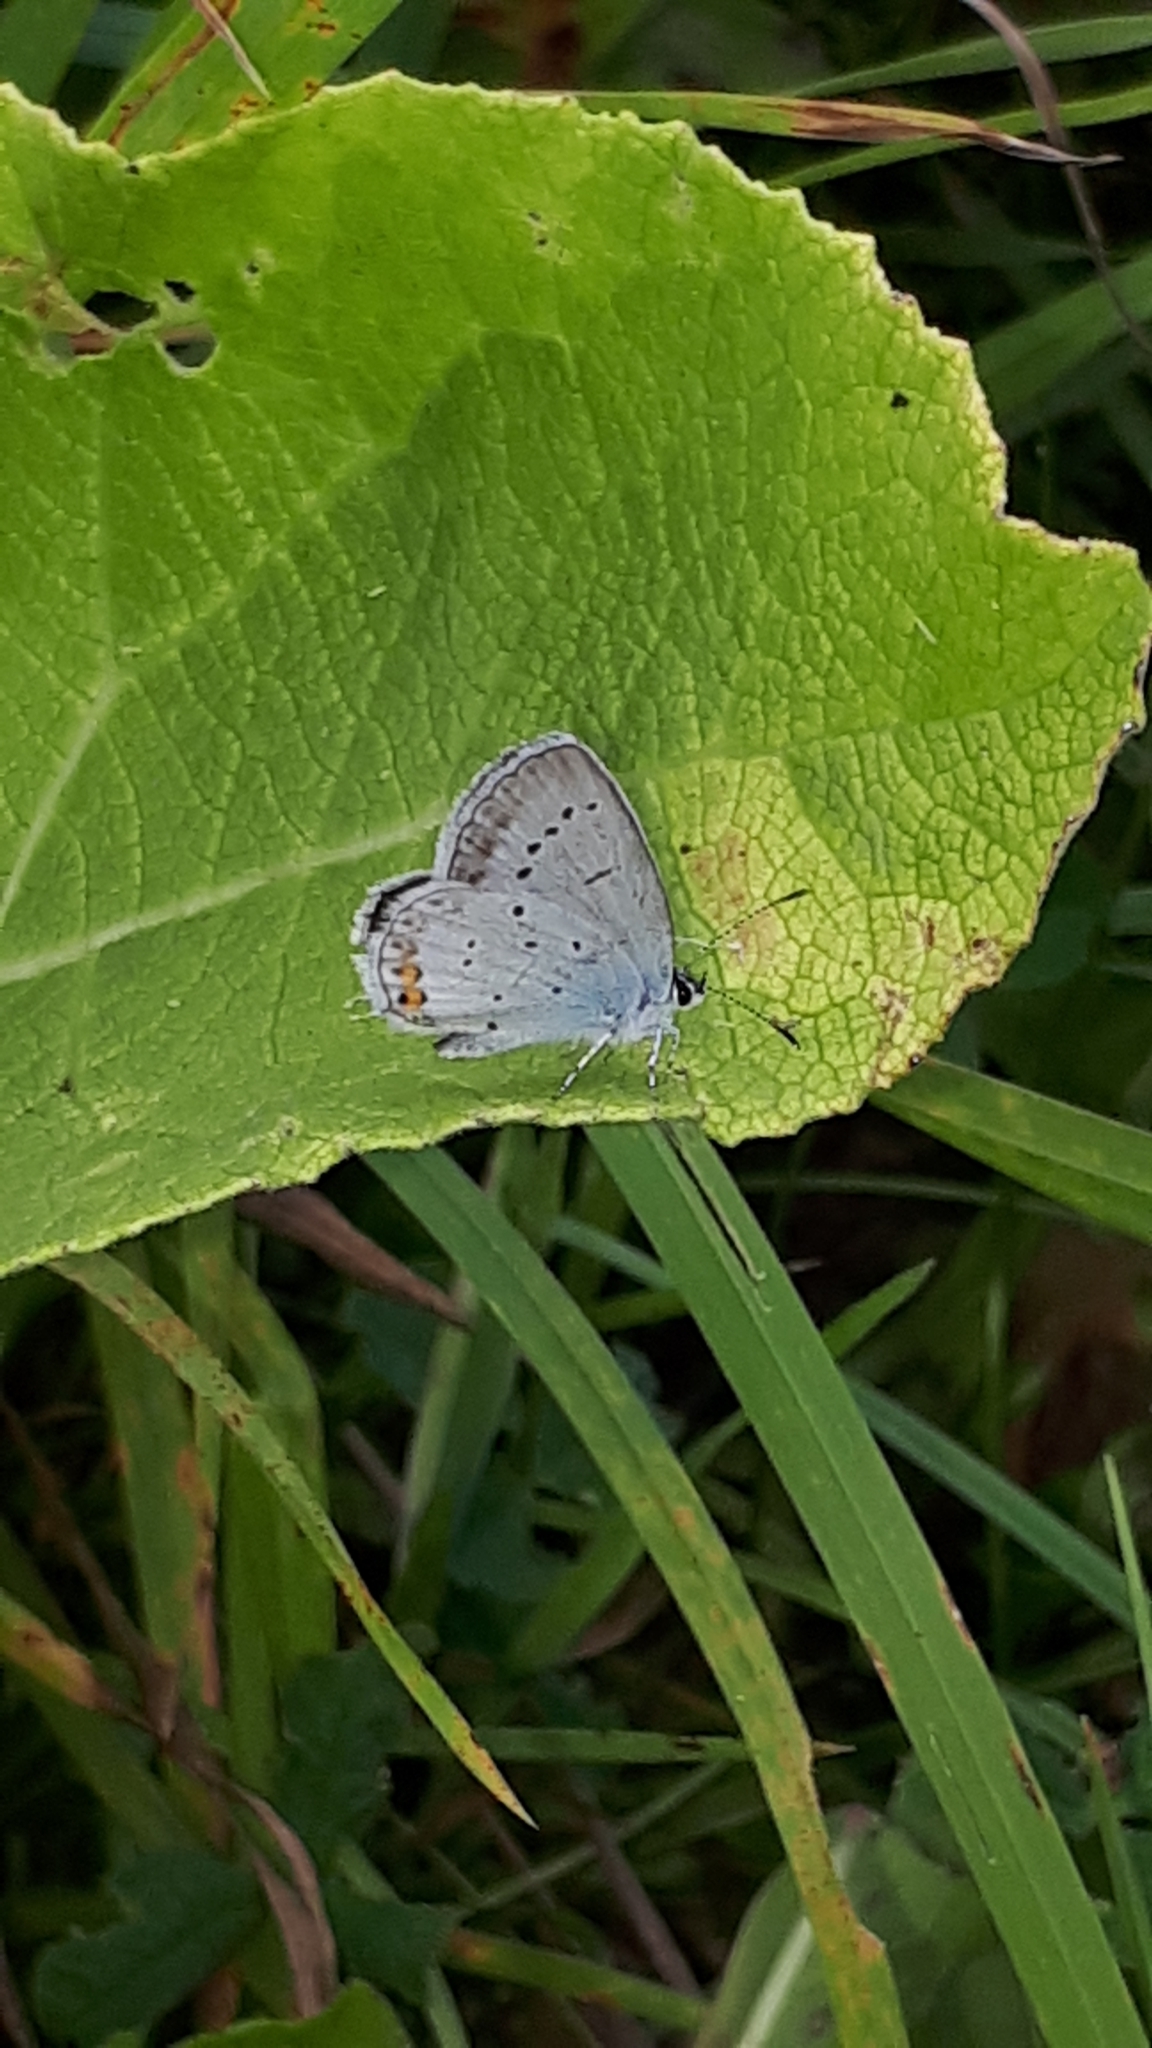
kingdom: Animalia
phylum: Arthropoda
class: Insecta
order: Lepidoptera
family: Lycaenidae
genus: Elkalyce
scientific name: Elkalyce argiades
